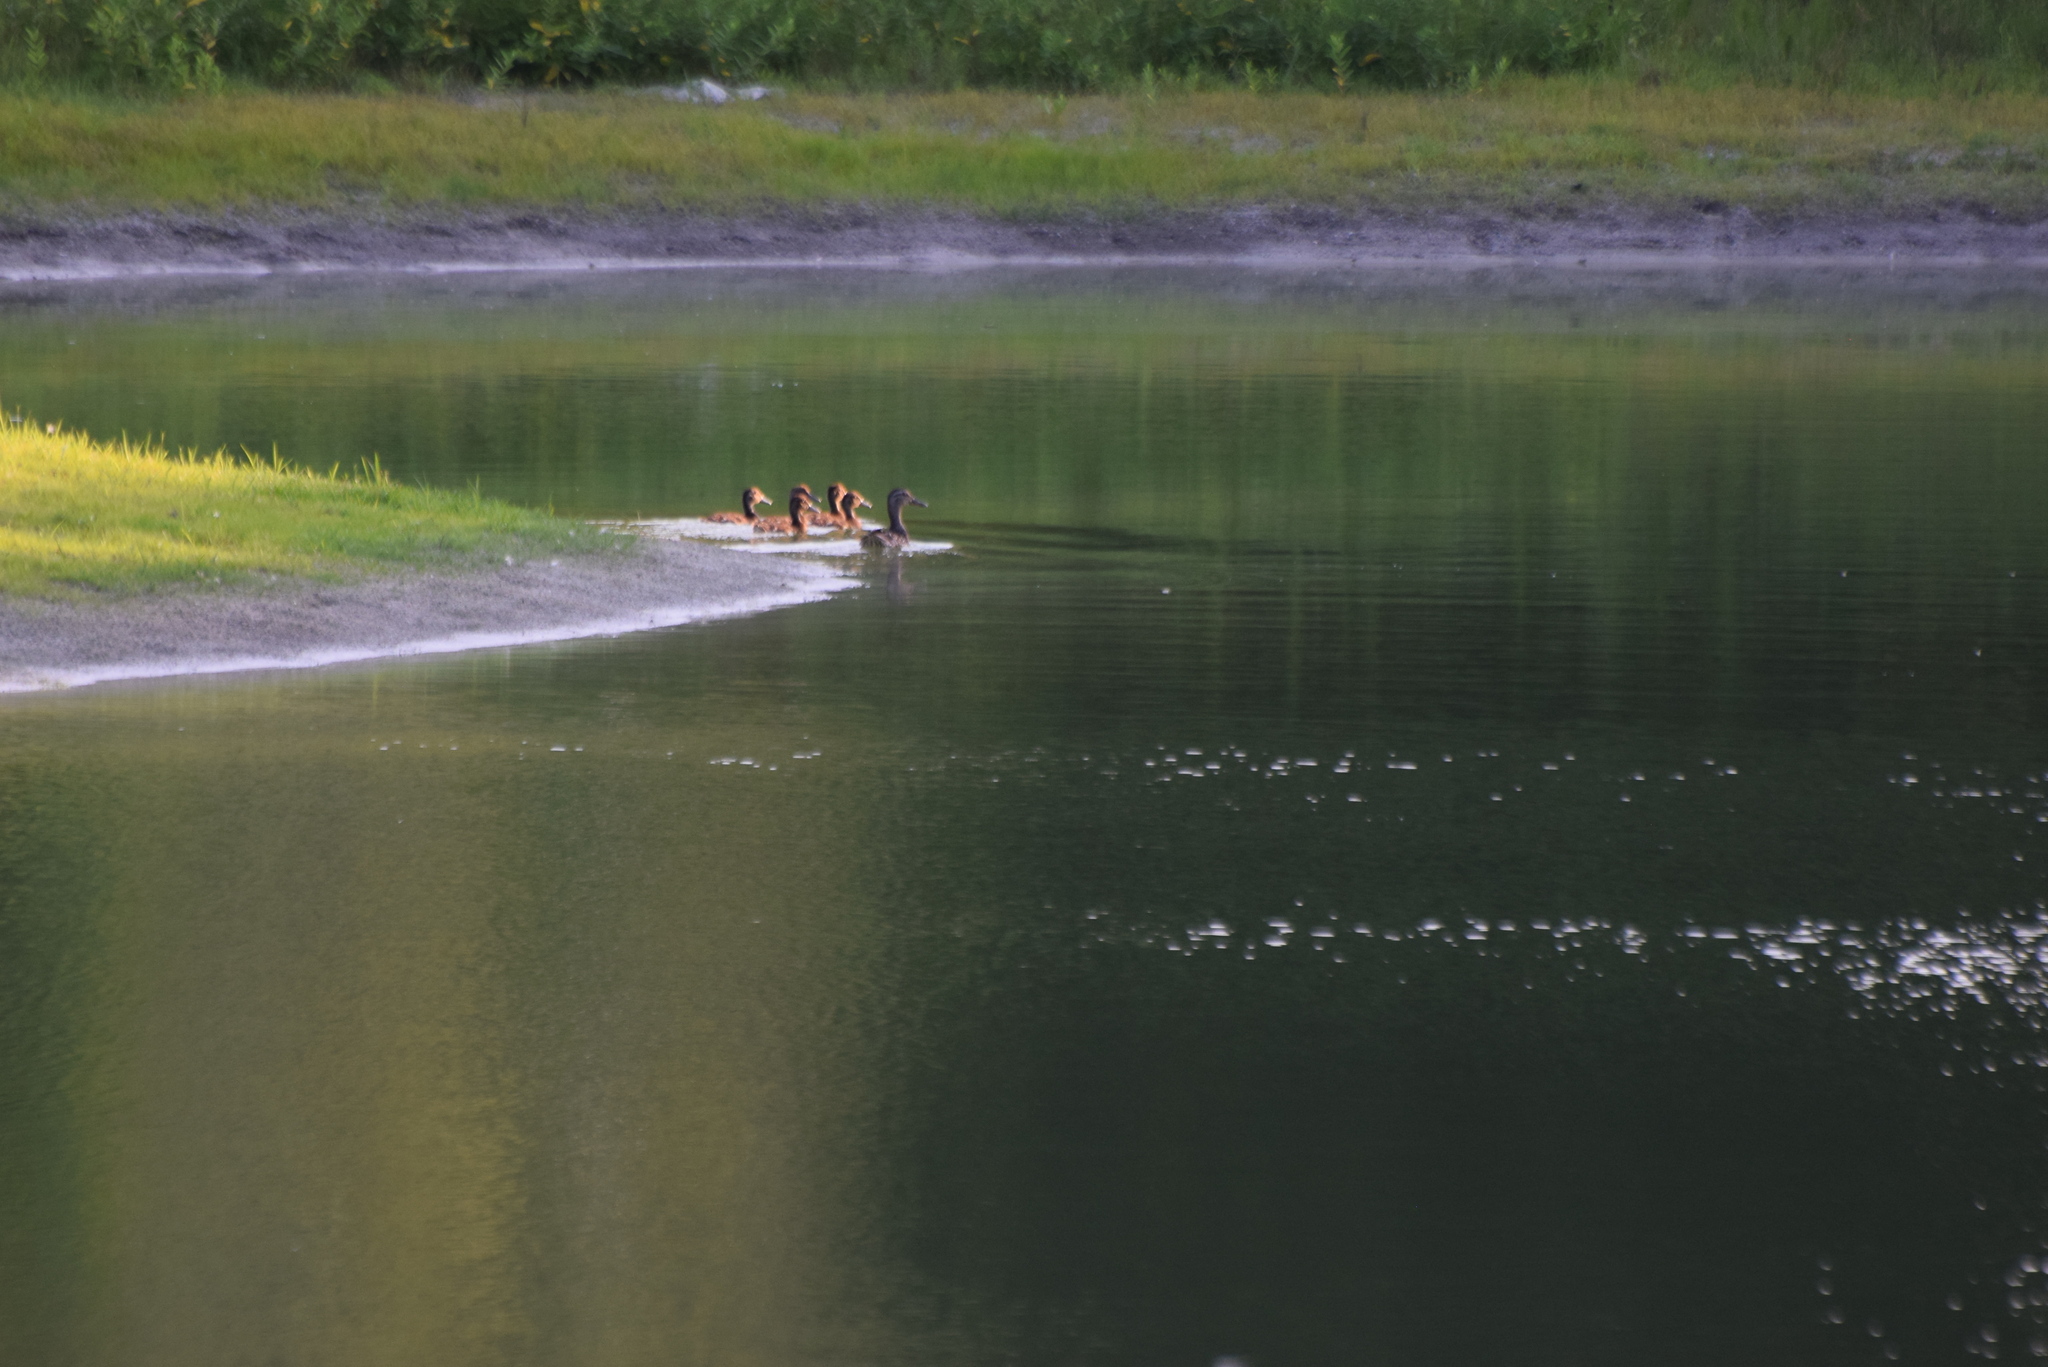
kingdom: Animalia
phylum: Chordata
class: Aves
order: Anseriformes
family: Anatidae
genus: Anas
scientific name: Anas platyrhynchos
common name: Mallard
